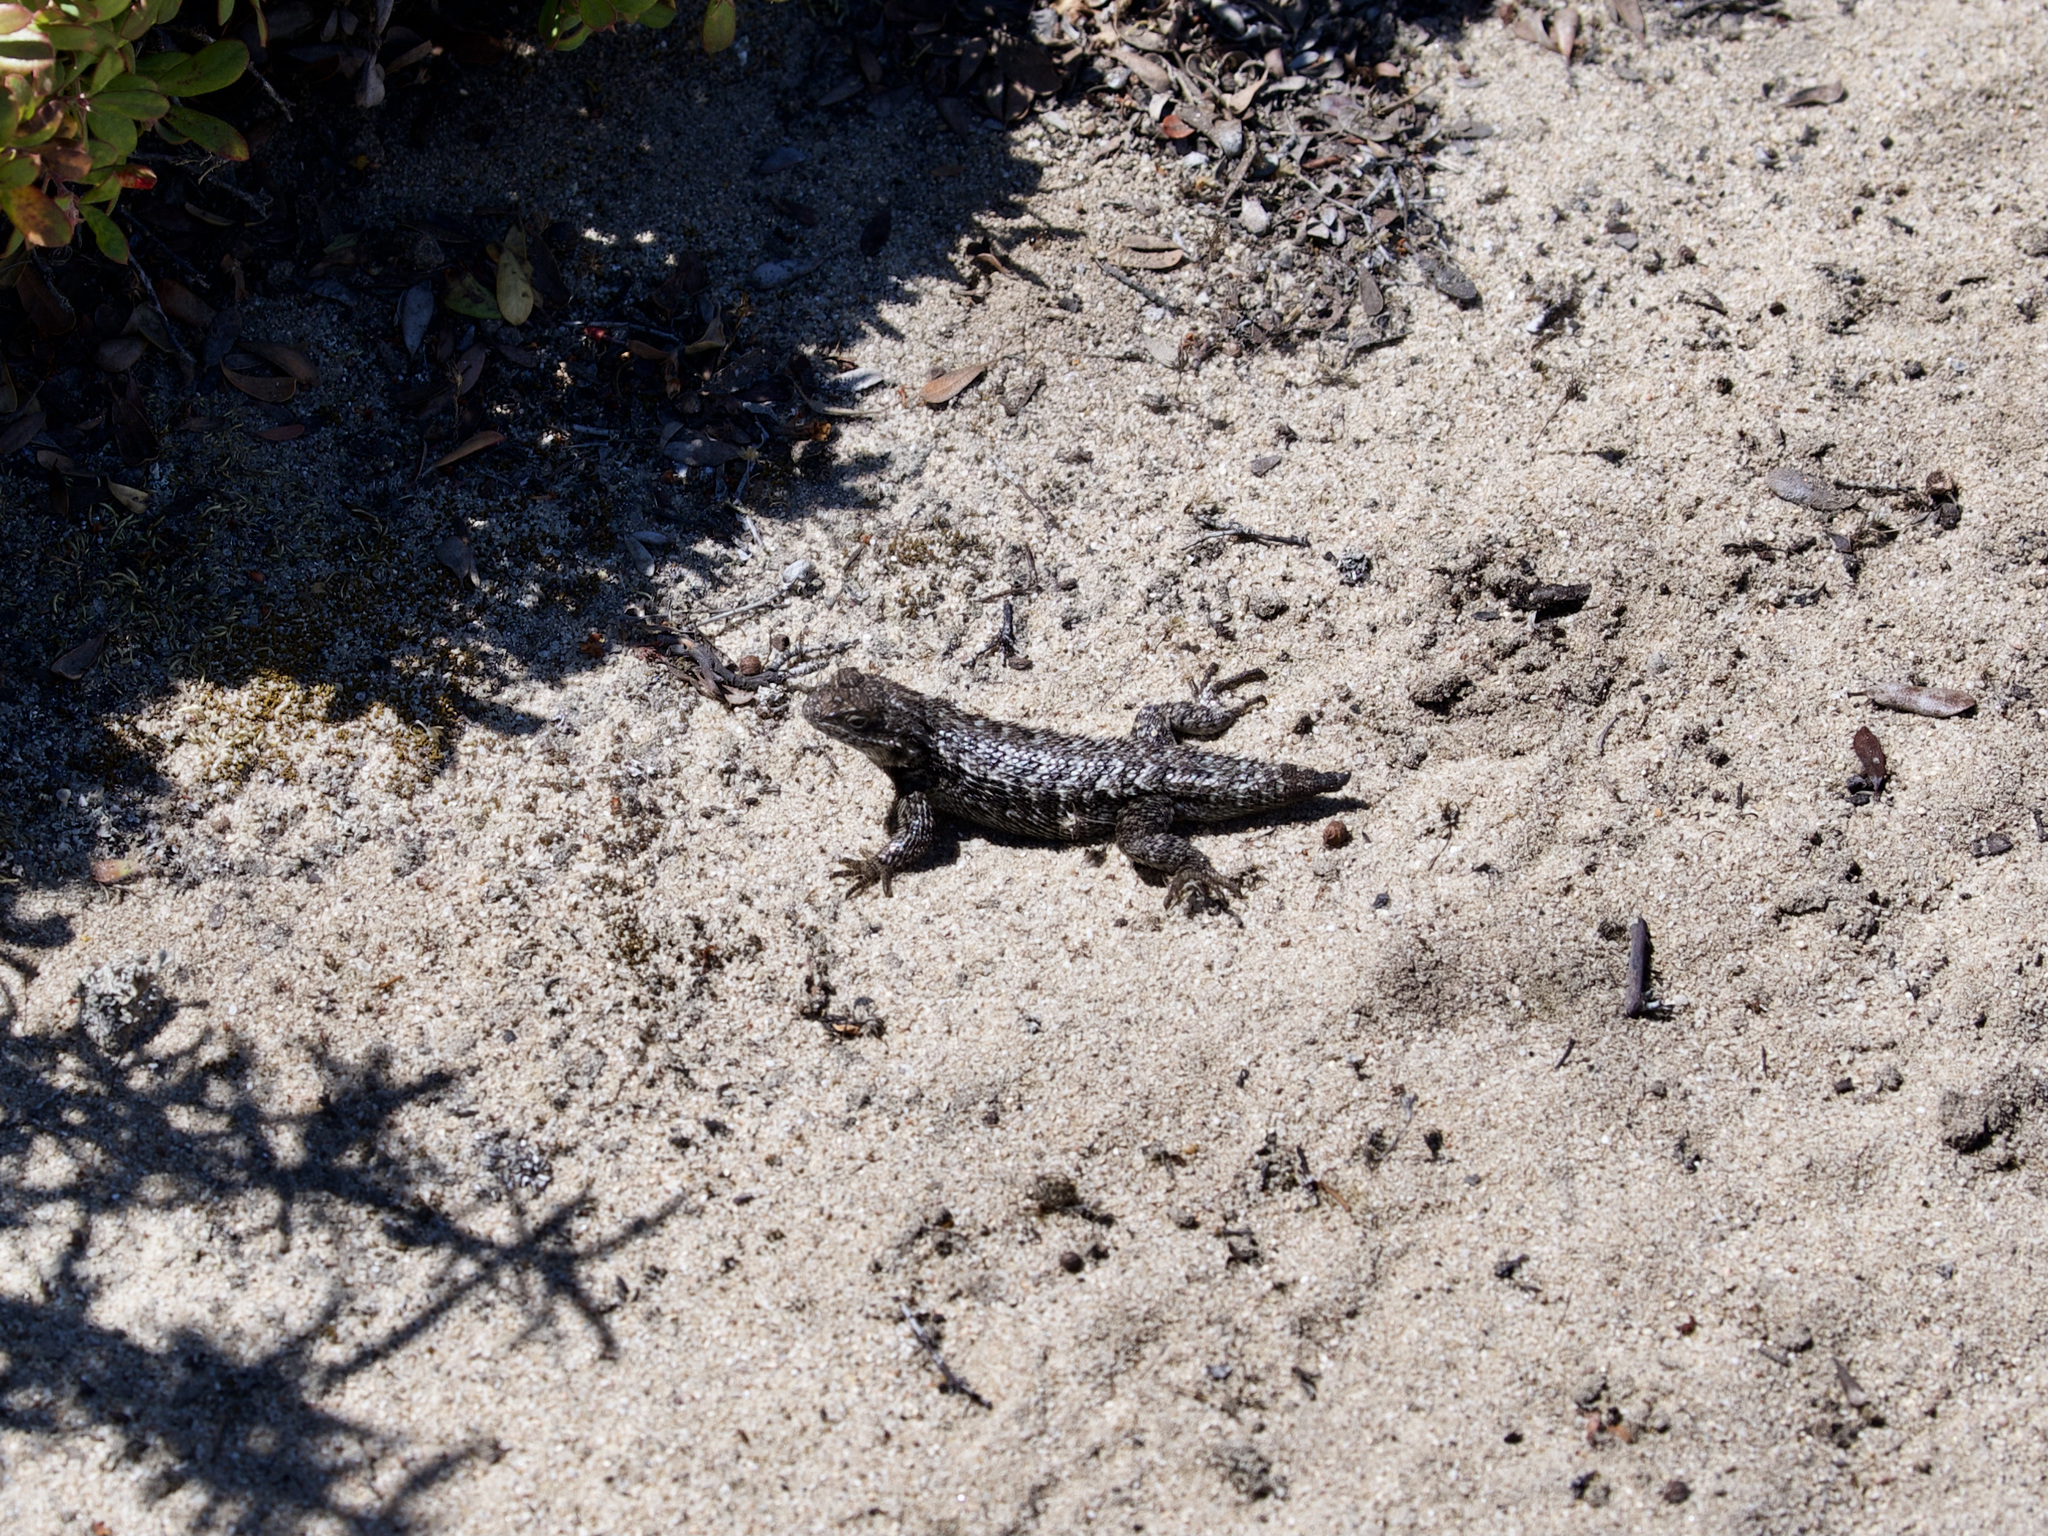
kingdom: Animalia
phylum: Chordata
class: Squamata
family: Phrynosomatidae
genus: Sceloporus
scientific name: Sceloporus occidentalis
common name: Western fence lizard
